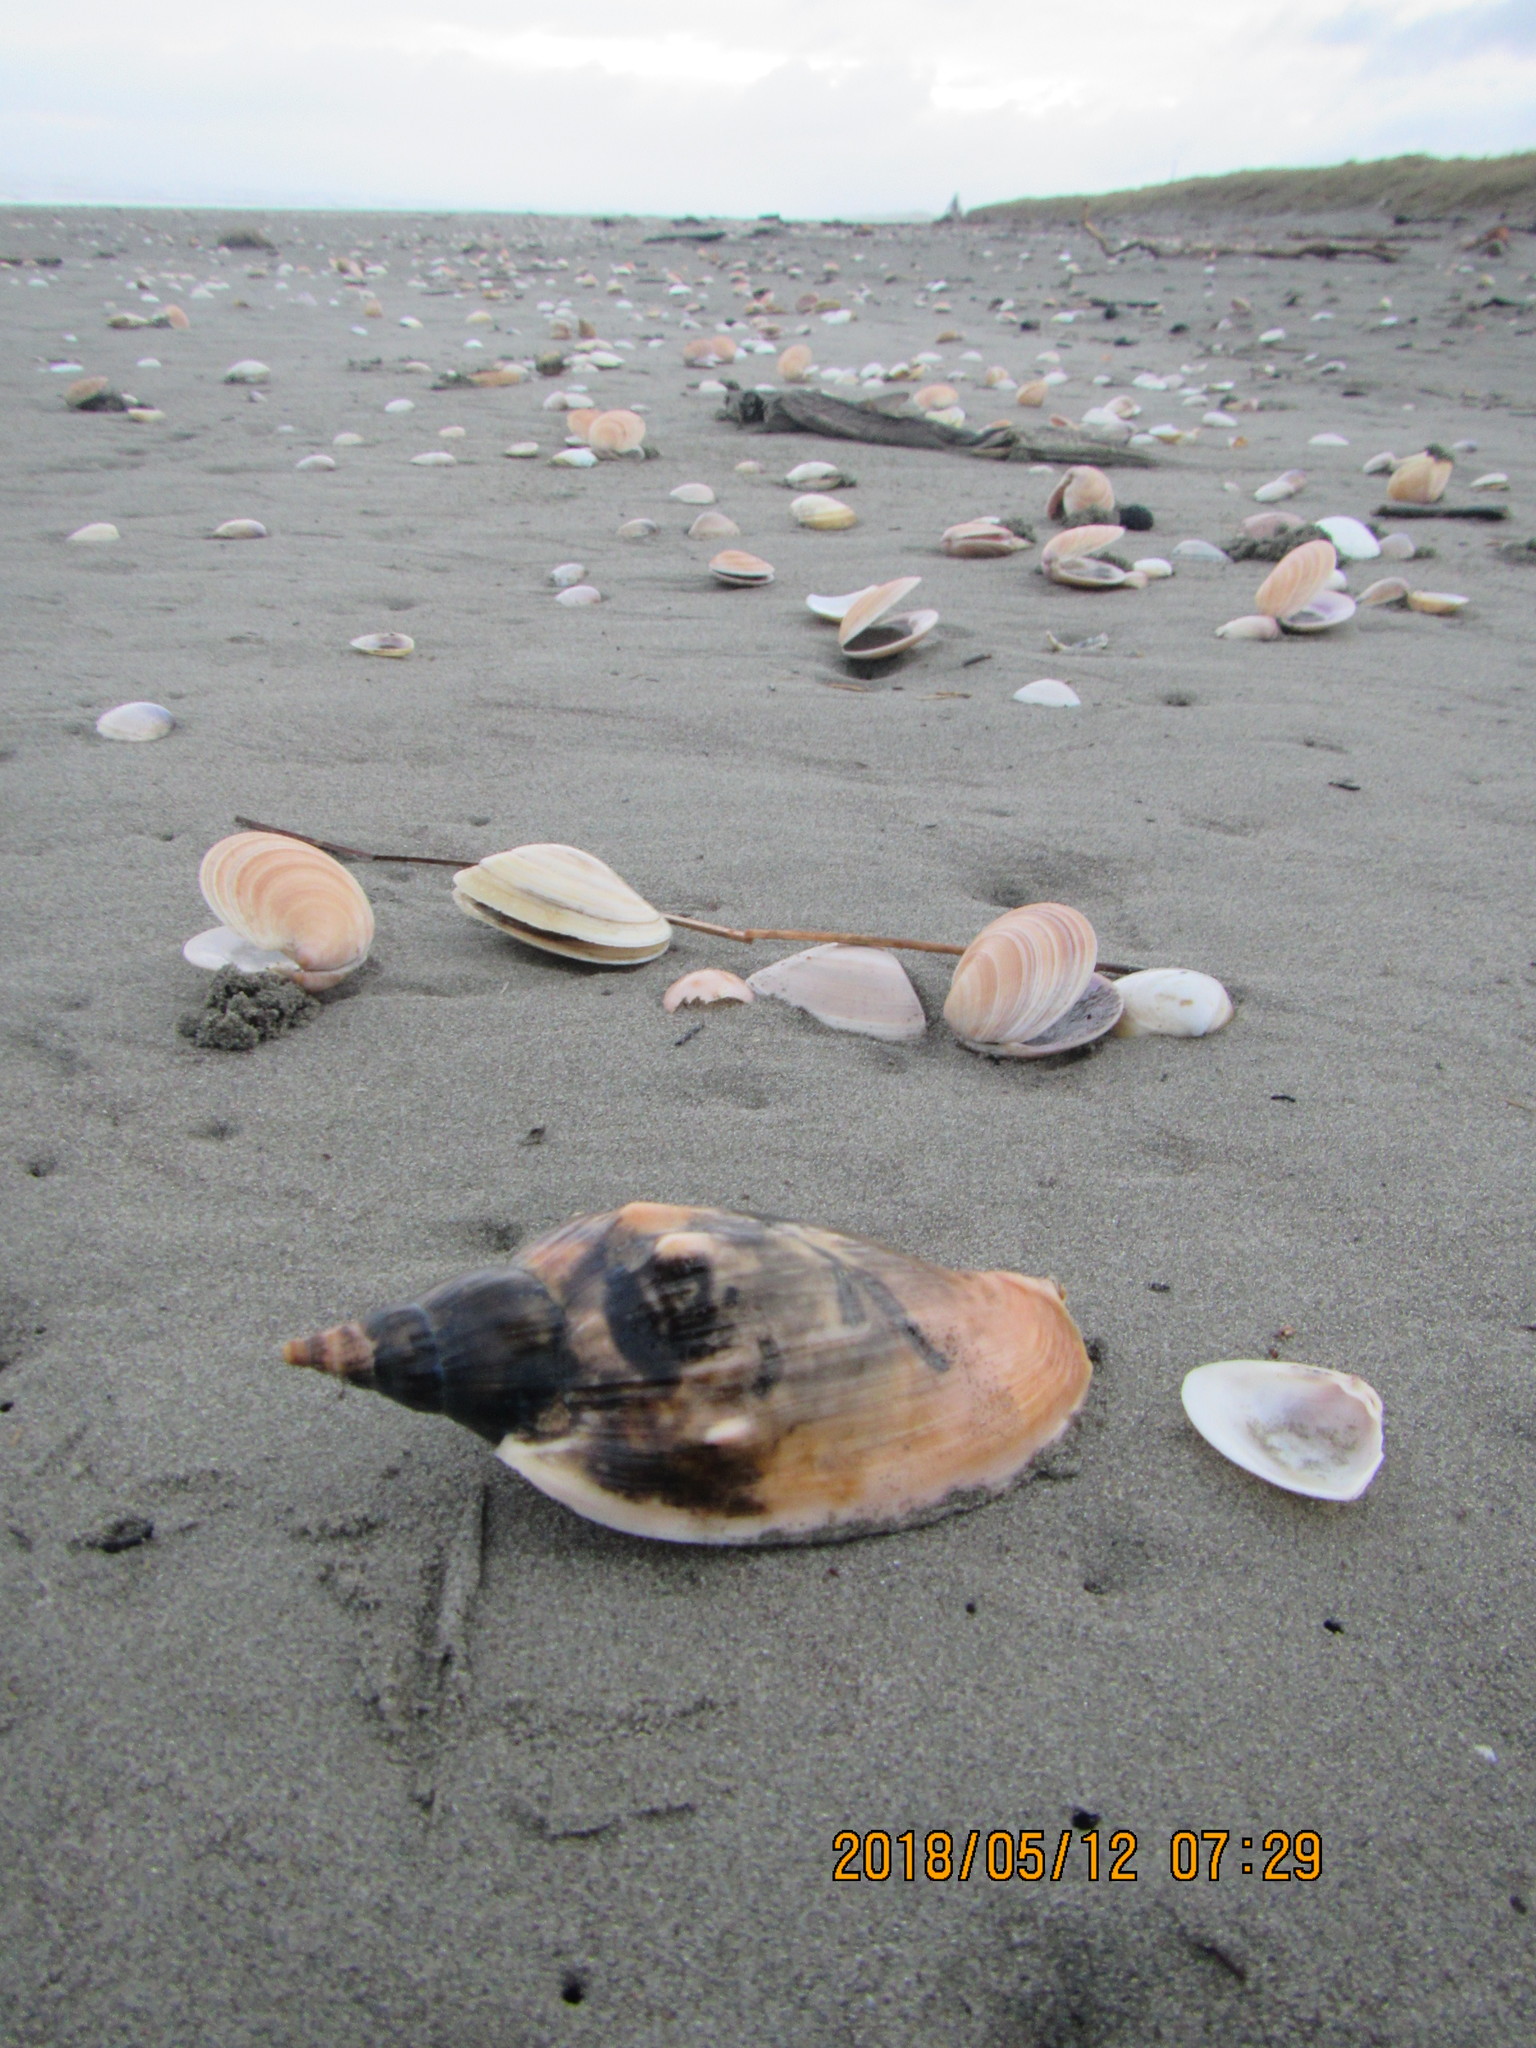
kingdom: Animalia
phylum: Mollusca
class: Gastropoda
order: Neogastropoda
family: Volutidae
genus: Alcithoe
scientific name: Alcithoe arabica
